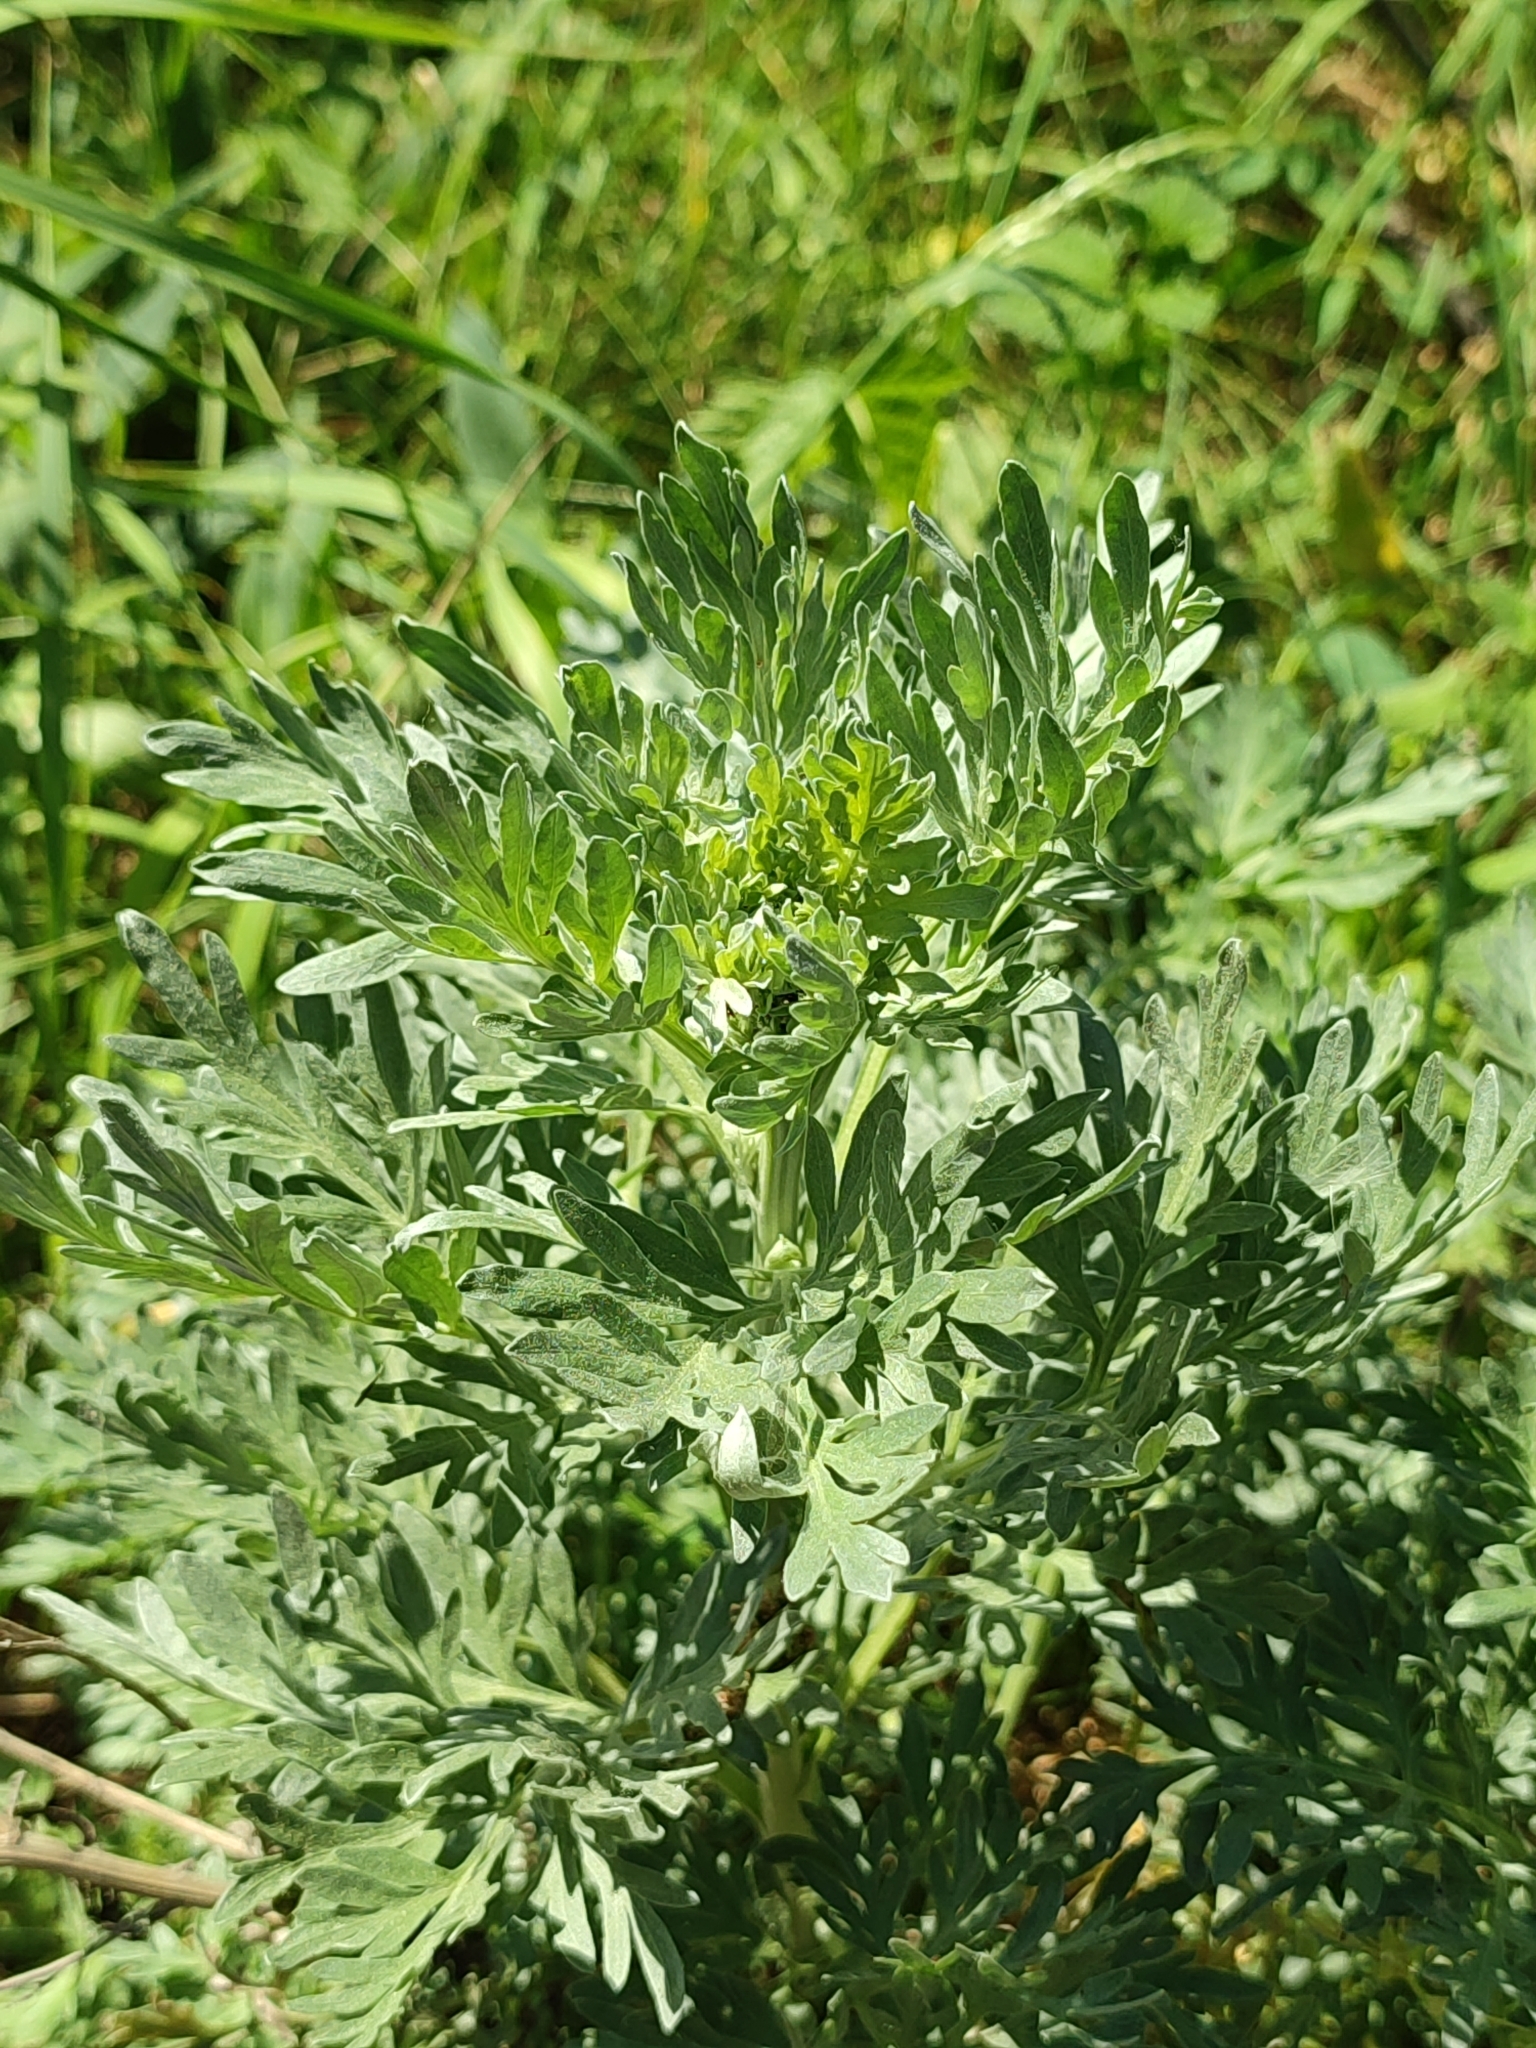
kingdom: Plantae
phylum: Tracheophyta
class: Magnoliopsida
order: Asterales
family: Asteraceae
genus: Artemisia
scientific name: Artemisia absinthium
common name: Wormwood
